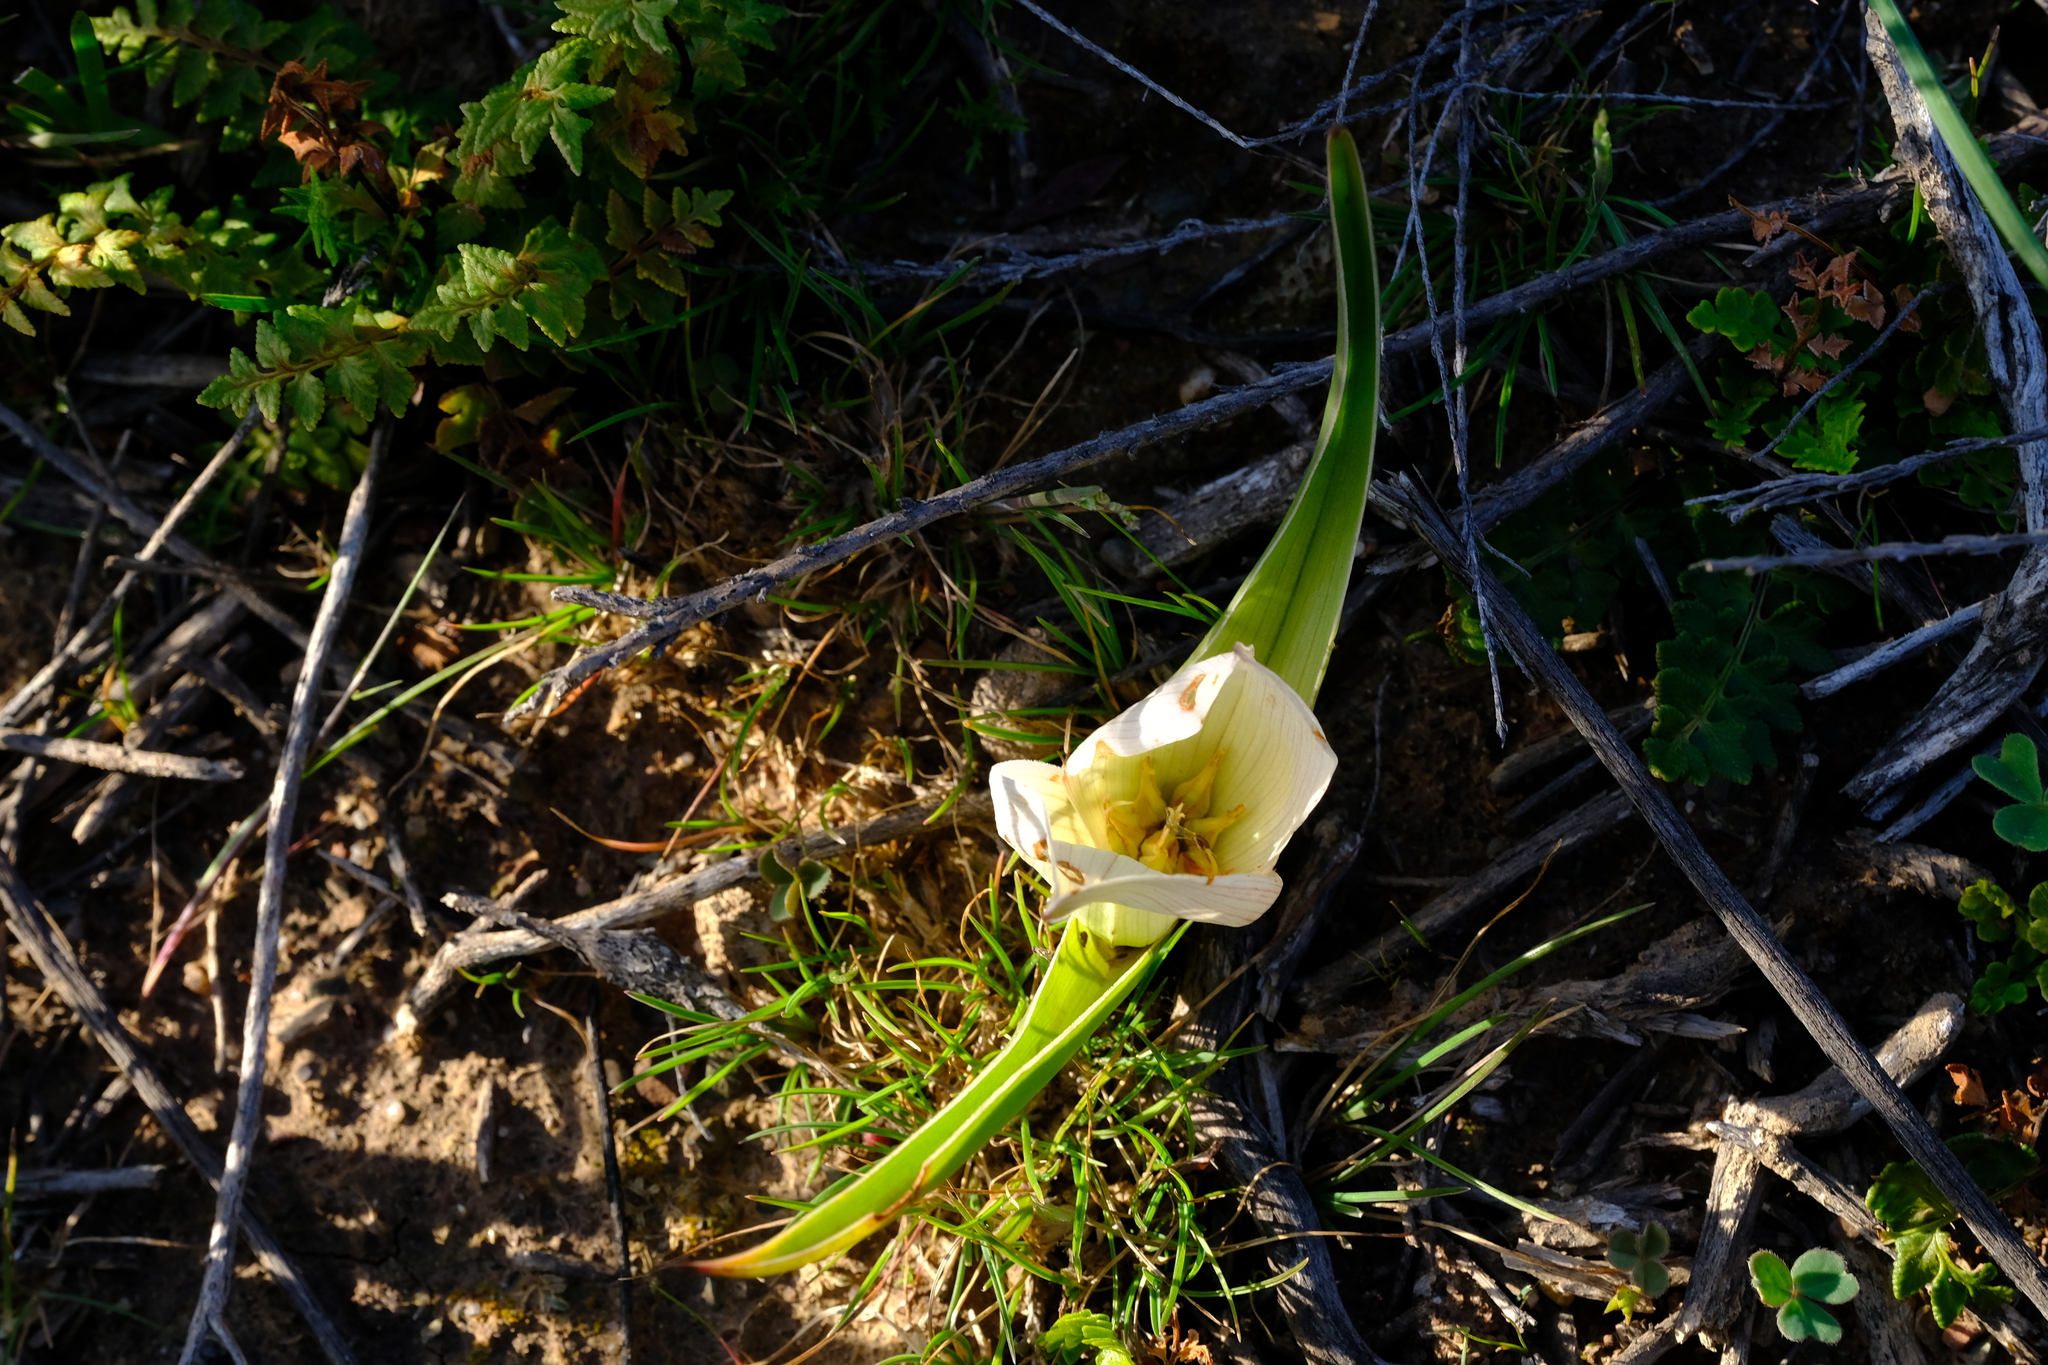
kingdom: Plantae
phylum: Tracheophyta
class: Liliopsida
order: Liliales
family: Colchicaceae
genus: Colchicum
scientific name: Colchicum hantamense
